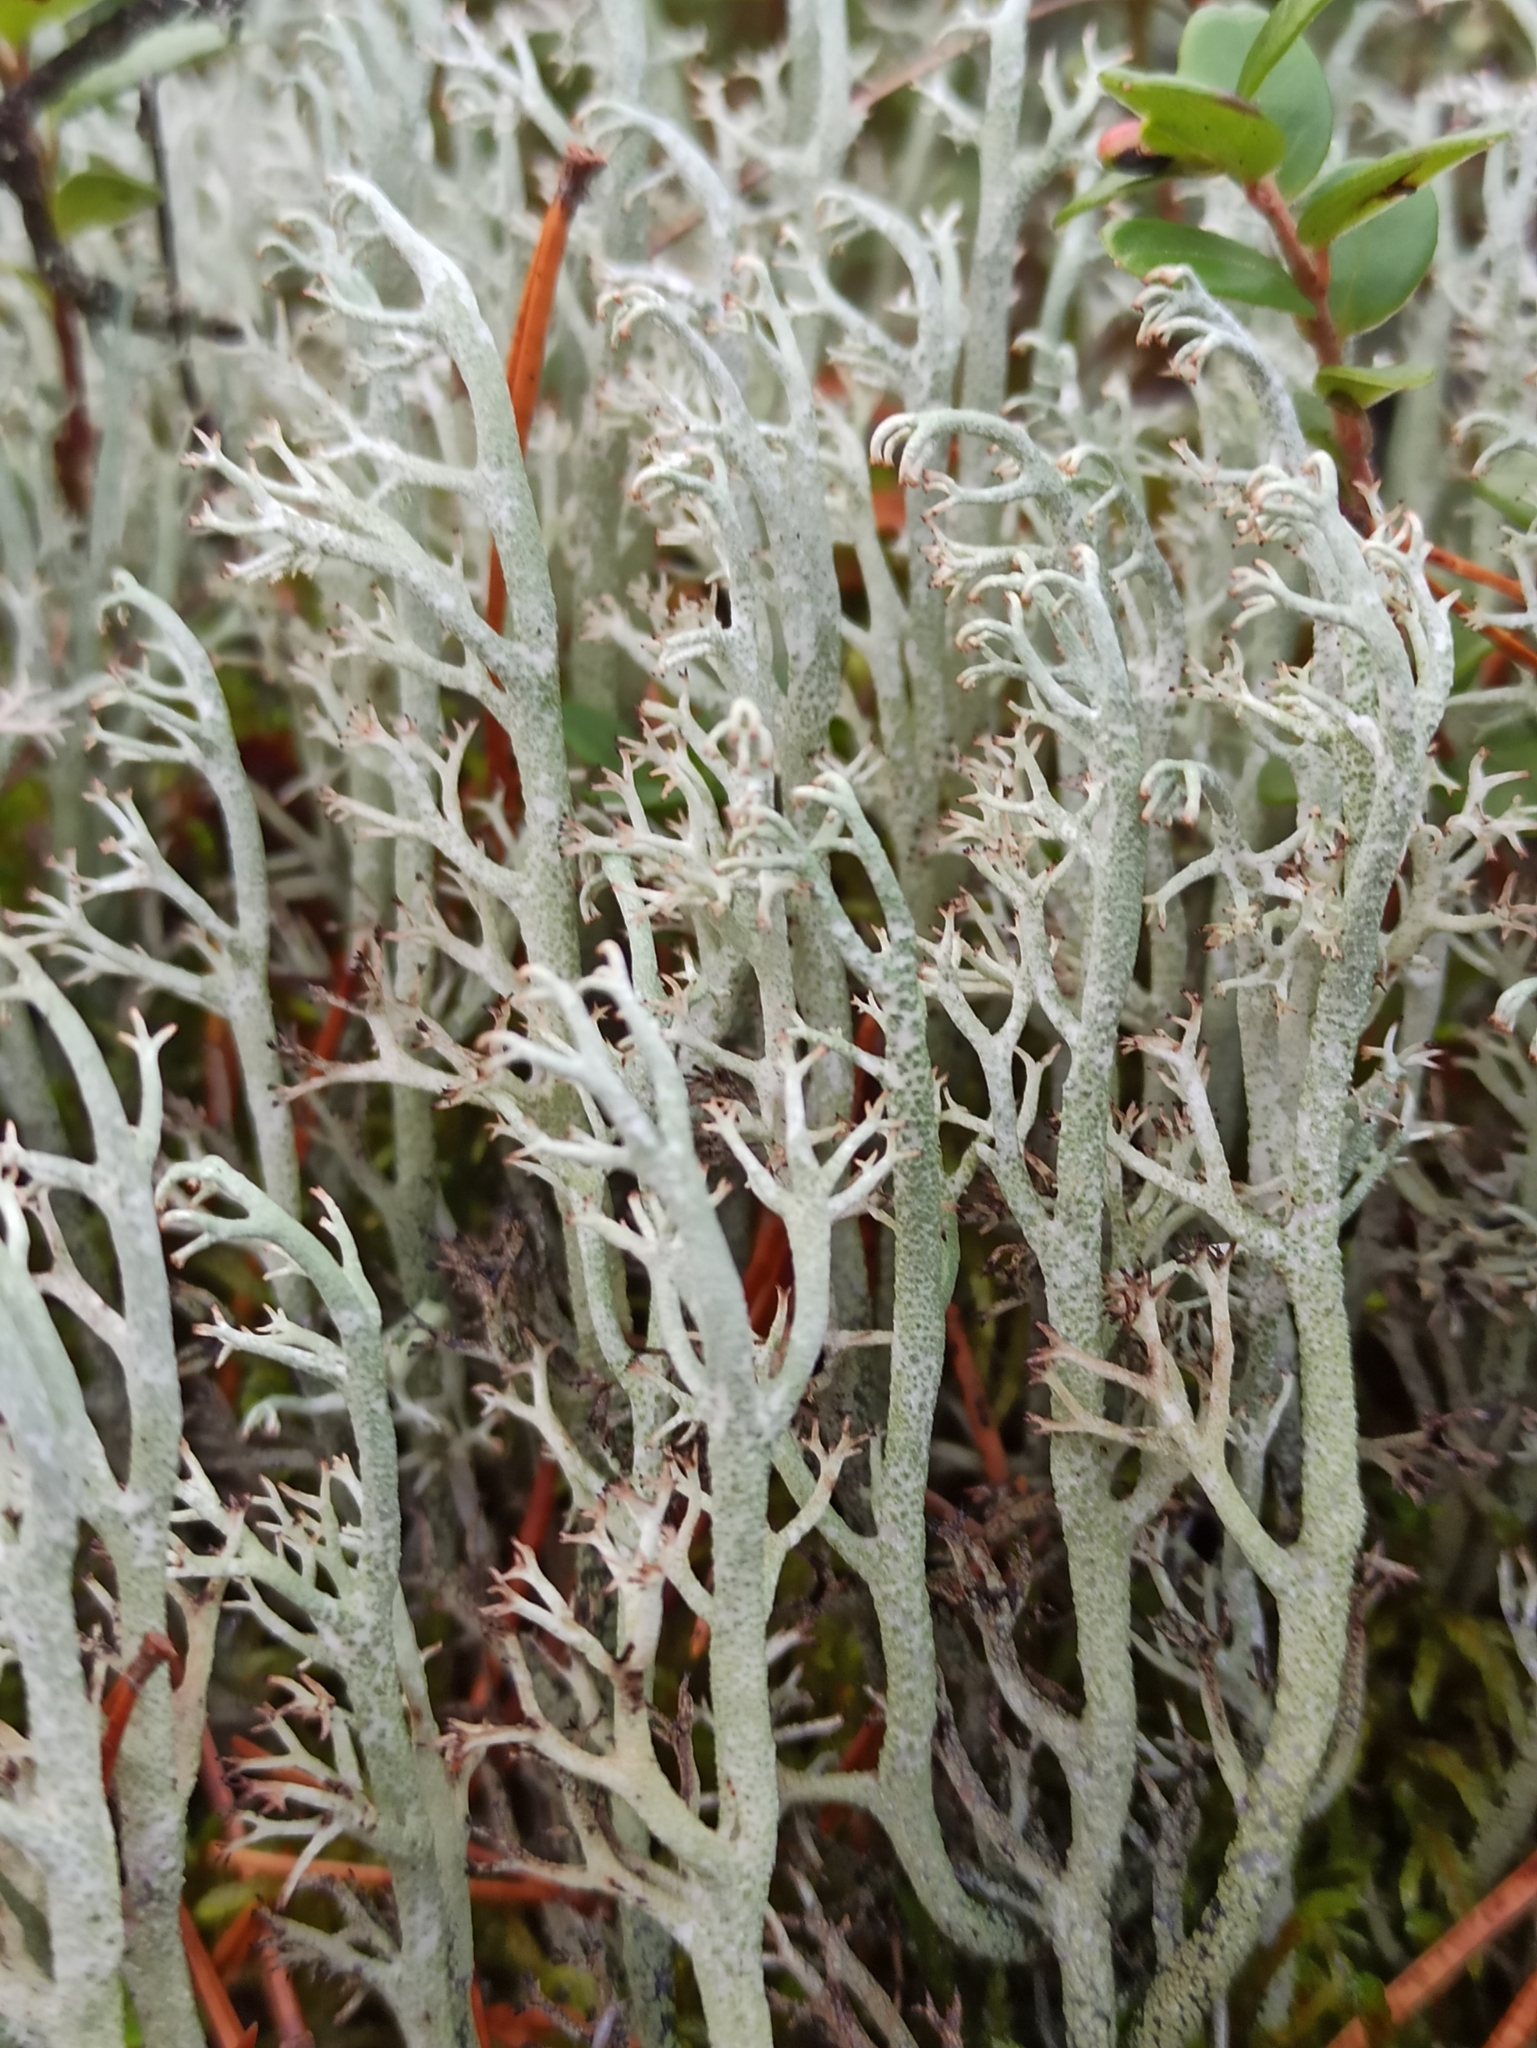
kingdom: Fungi
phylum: Ascomycota
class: Lecanoromycetes
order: Lecanorales
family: Cladoniaceae
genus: Cladonia
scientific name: Cladonia rangiferina
